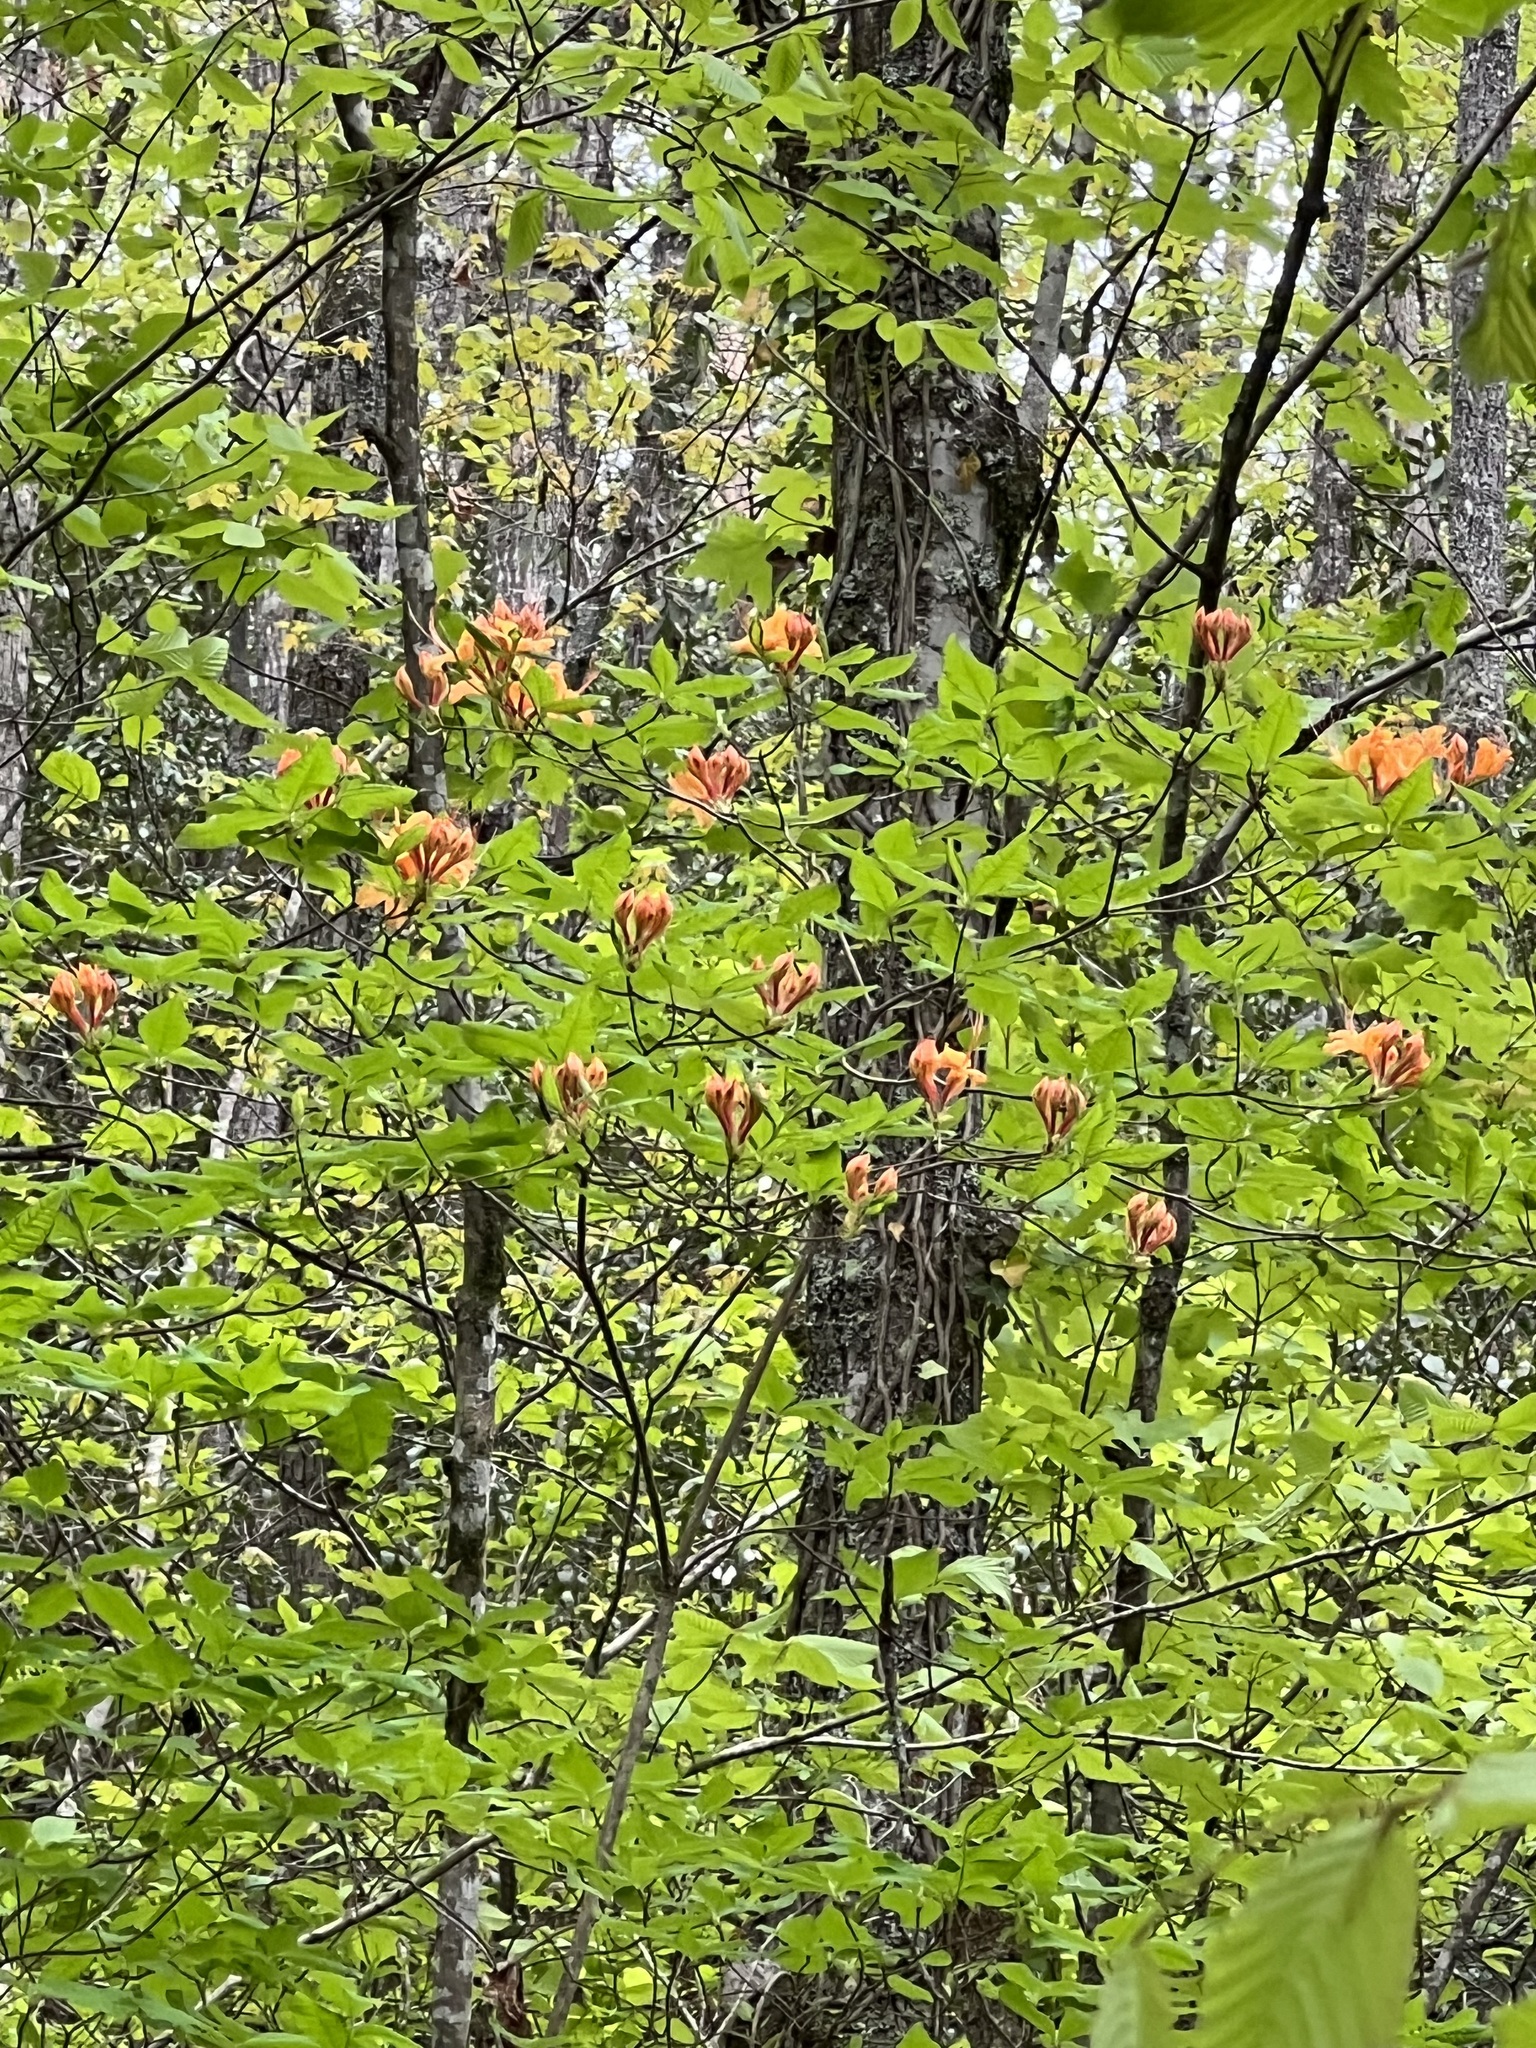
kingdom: Plantae
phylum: Tracheophyta
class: Magnoliopsida
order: Ericales
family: Ericaceae
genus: Rhododendron
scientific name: Rhododendron calendulaceum
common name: Flame azalea
